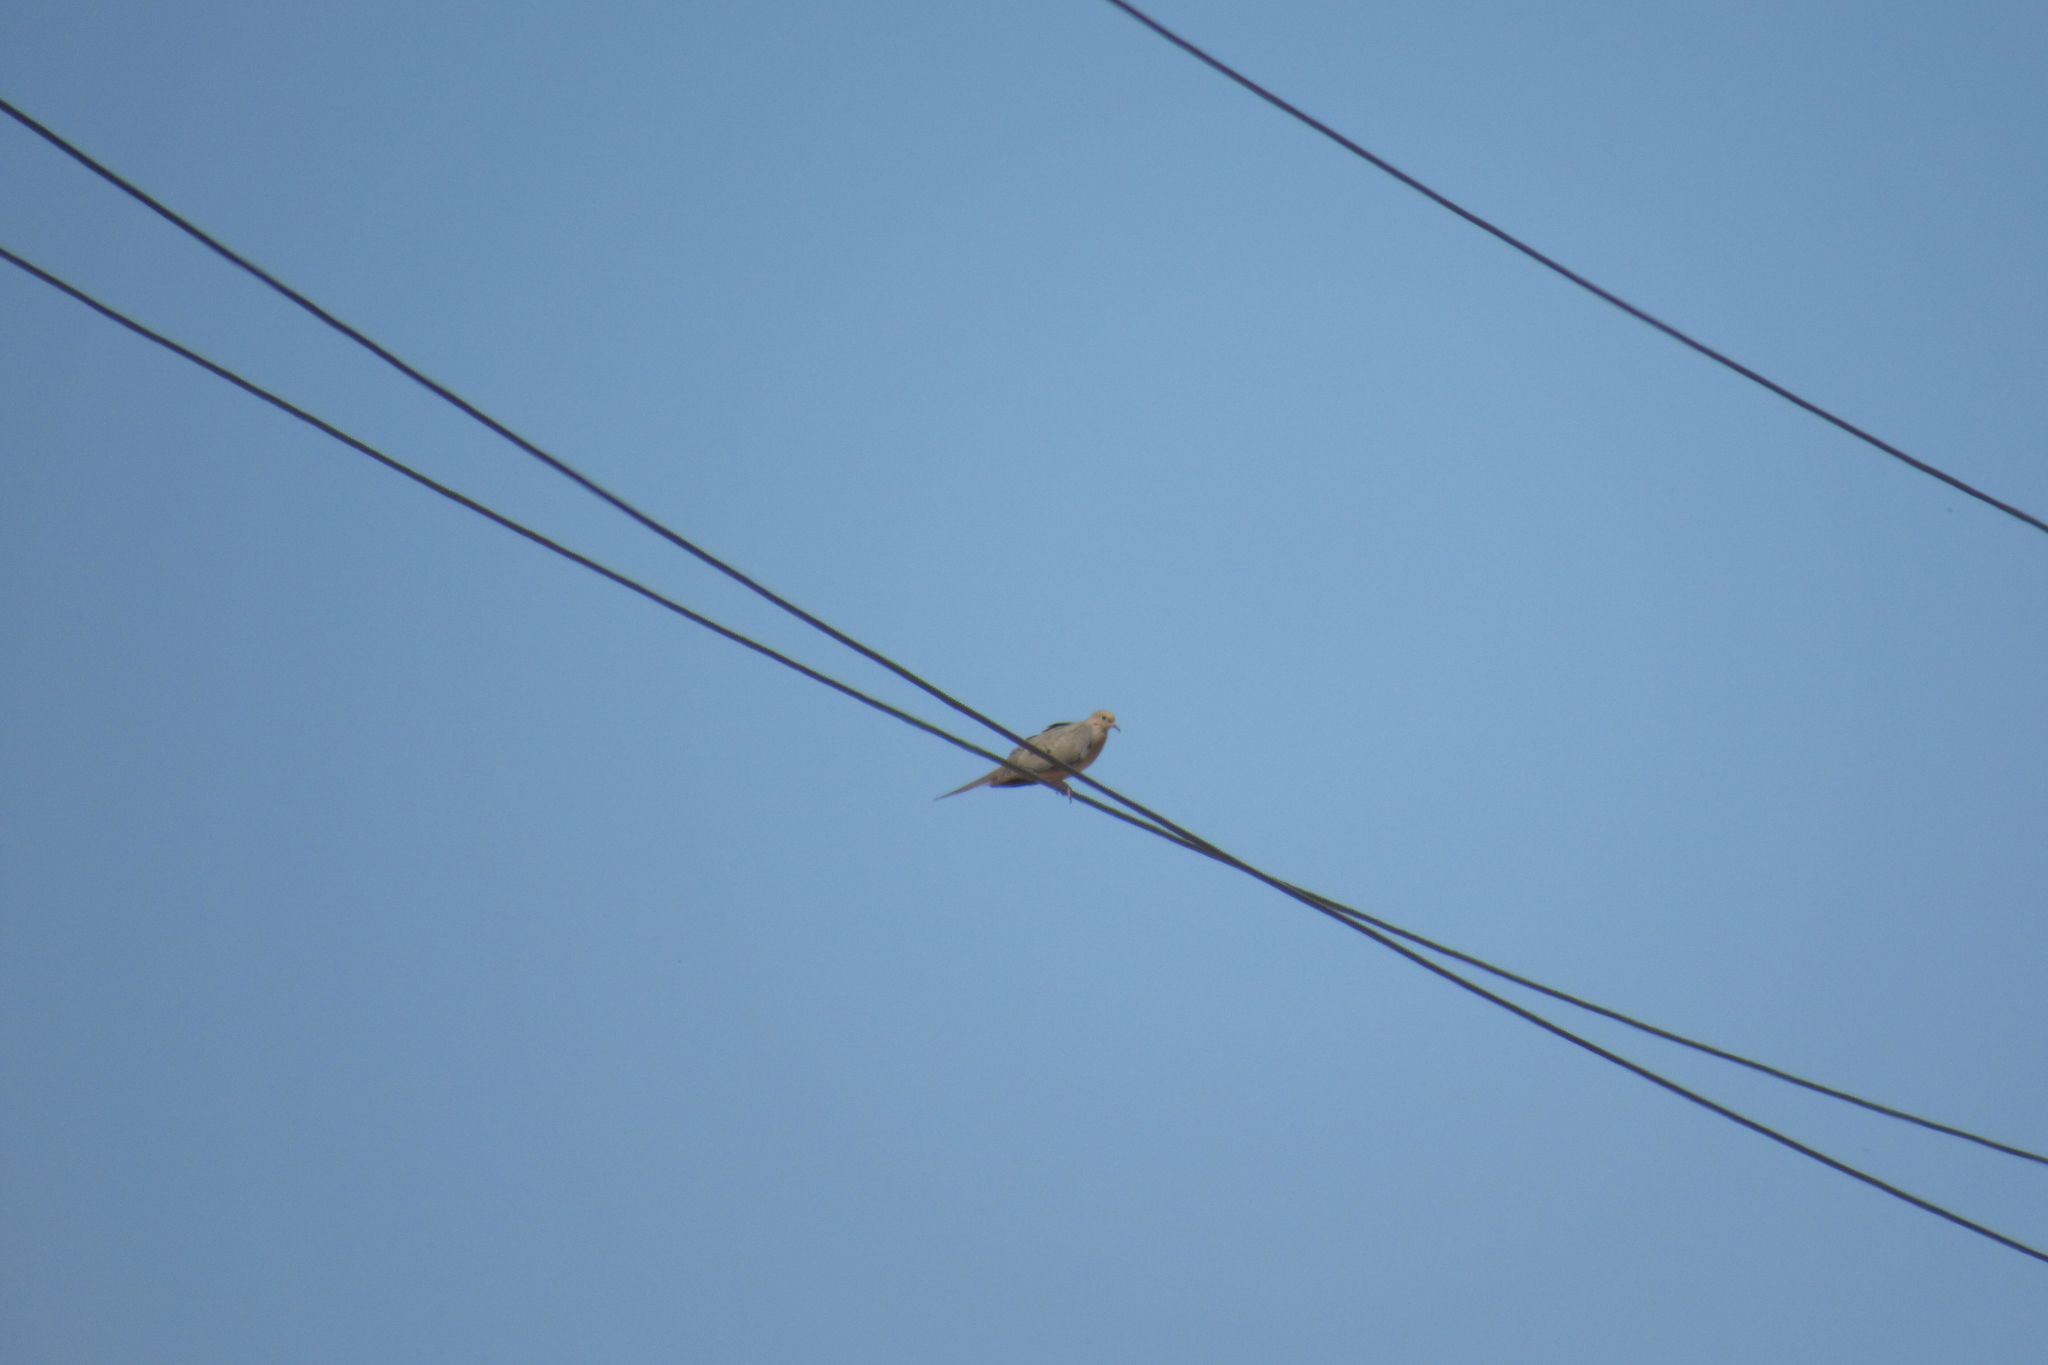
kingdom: Animalia
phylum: Chordata
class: Aves
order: Columbiformes
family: Columbidae
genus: Zenaida
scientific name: Zenaida macroura
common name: Mourning dove
